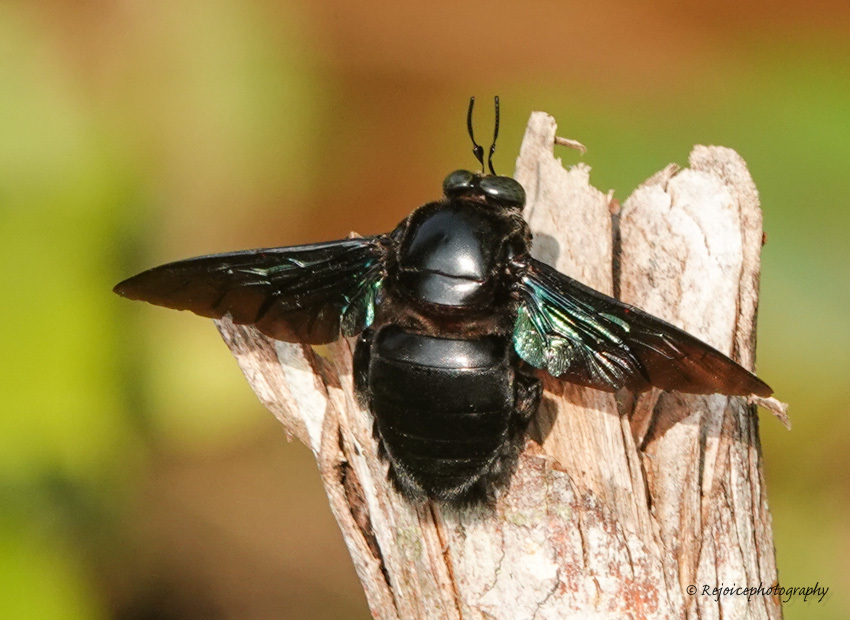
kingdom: Animalia
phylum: Arthropoda
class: Insecta
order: Hymenoptera
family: Apidae
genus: Xylocopa
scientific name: Xylocopa latipes
